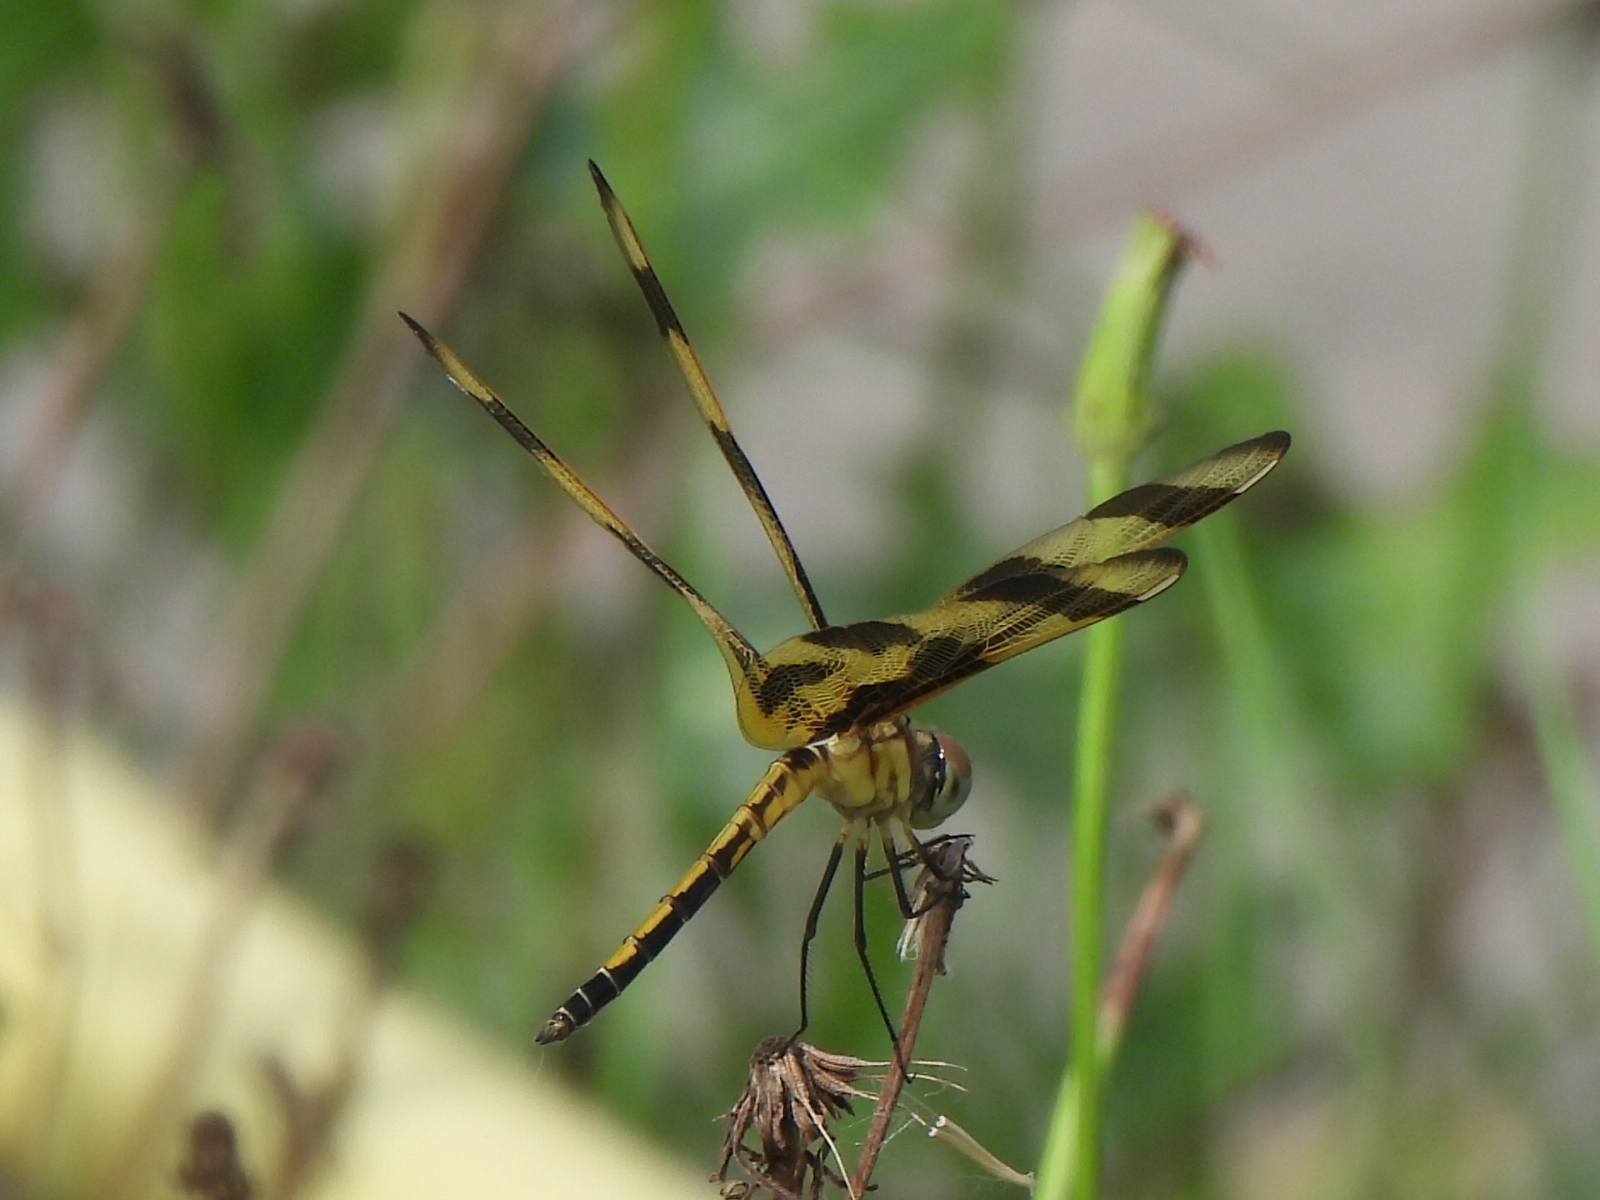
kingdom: Animalia
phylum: Arthropoda
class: Insecta
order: Odonata
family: Libellulidae
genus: Celithemis
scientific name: Celithemis eponina
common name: Halloween pennant
